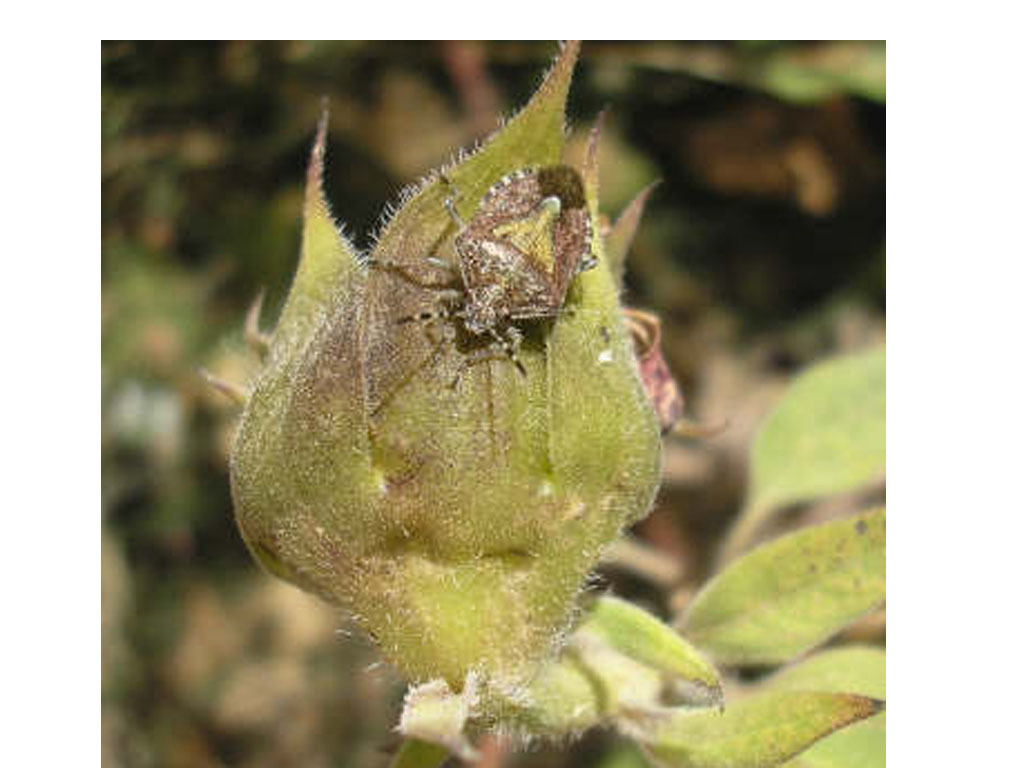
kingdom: Animalia
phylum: Arthropoda
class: Insecta
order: Hemiptera
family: Pentatomidae
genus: Dolycoris
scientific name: Dolycoris baccarum
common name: Sloe bug
